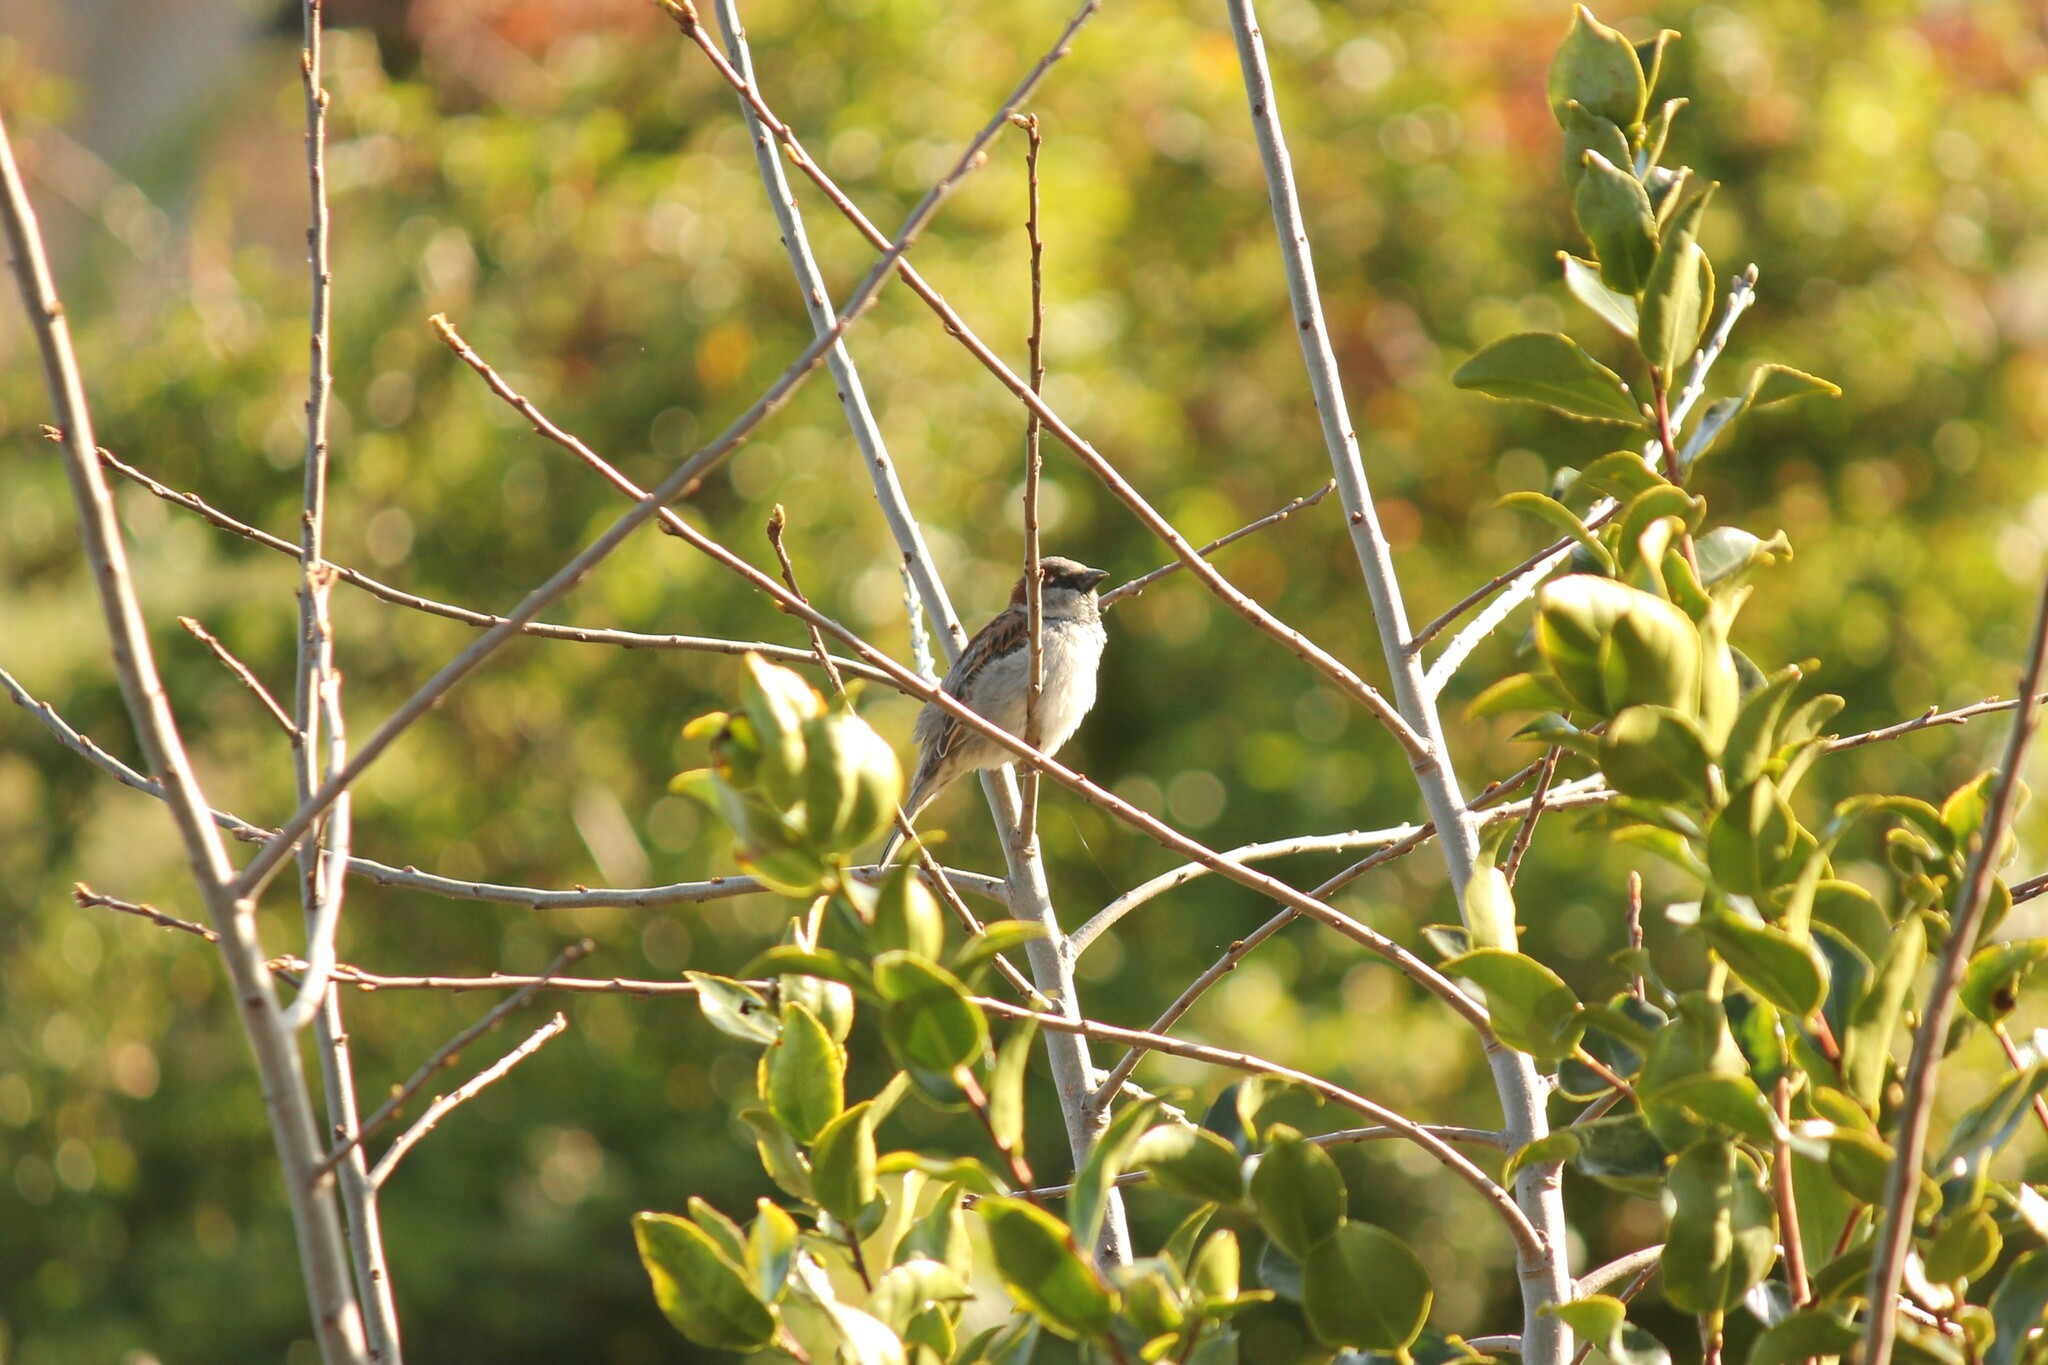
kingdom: Animalia
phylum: Chordata
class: Aves
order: Passeriformes
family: Passeridae
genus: Passer
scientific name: Passer domesticus
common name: House sparrow
